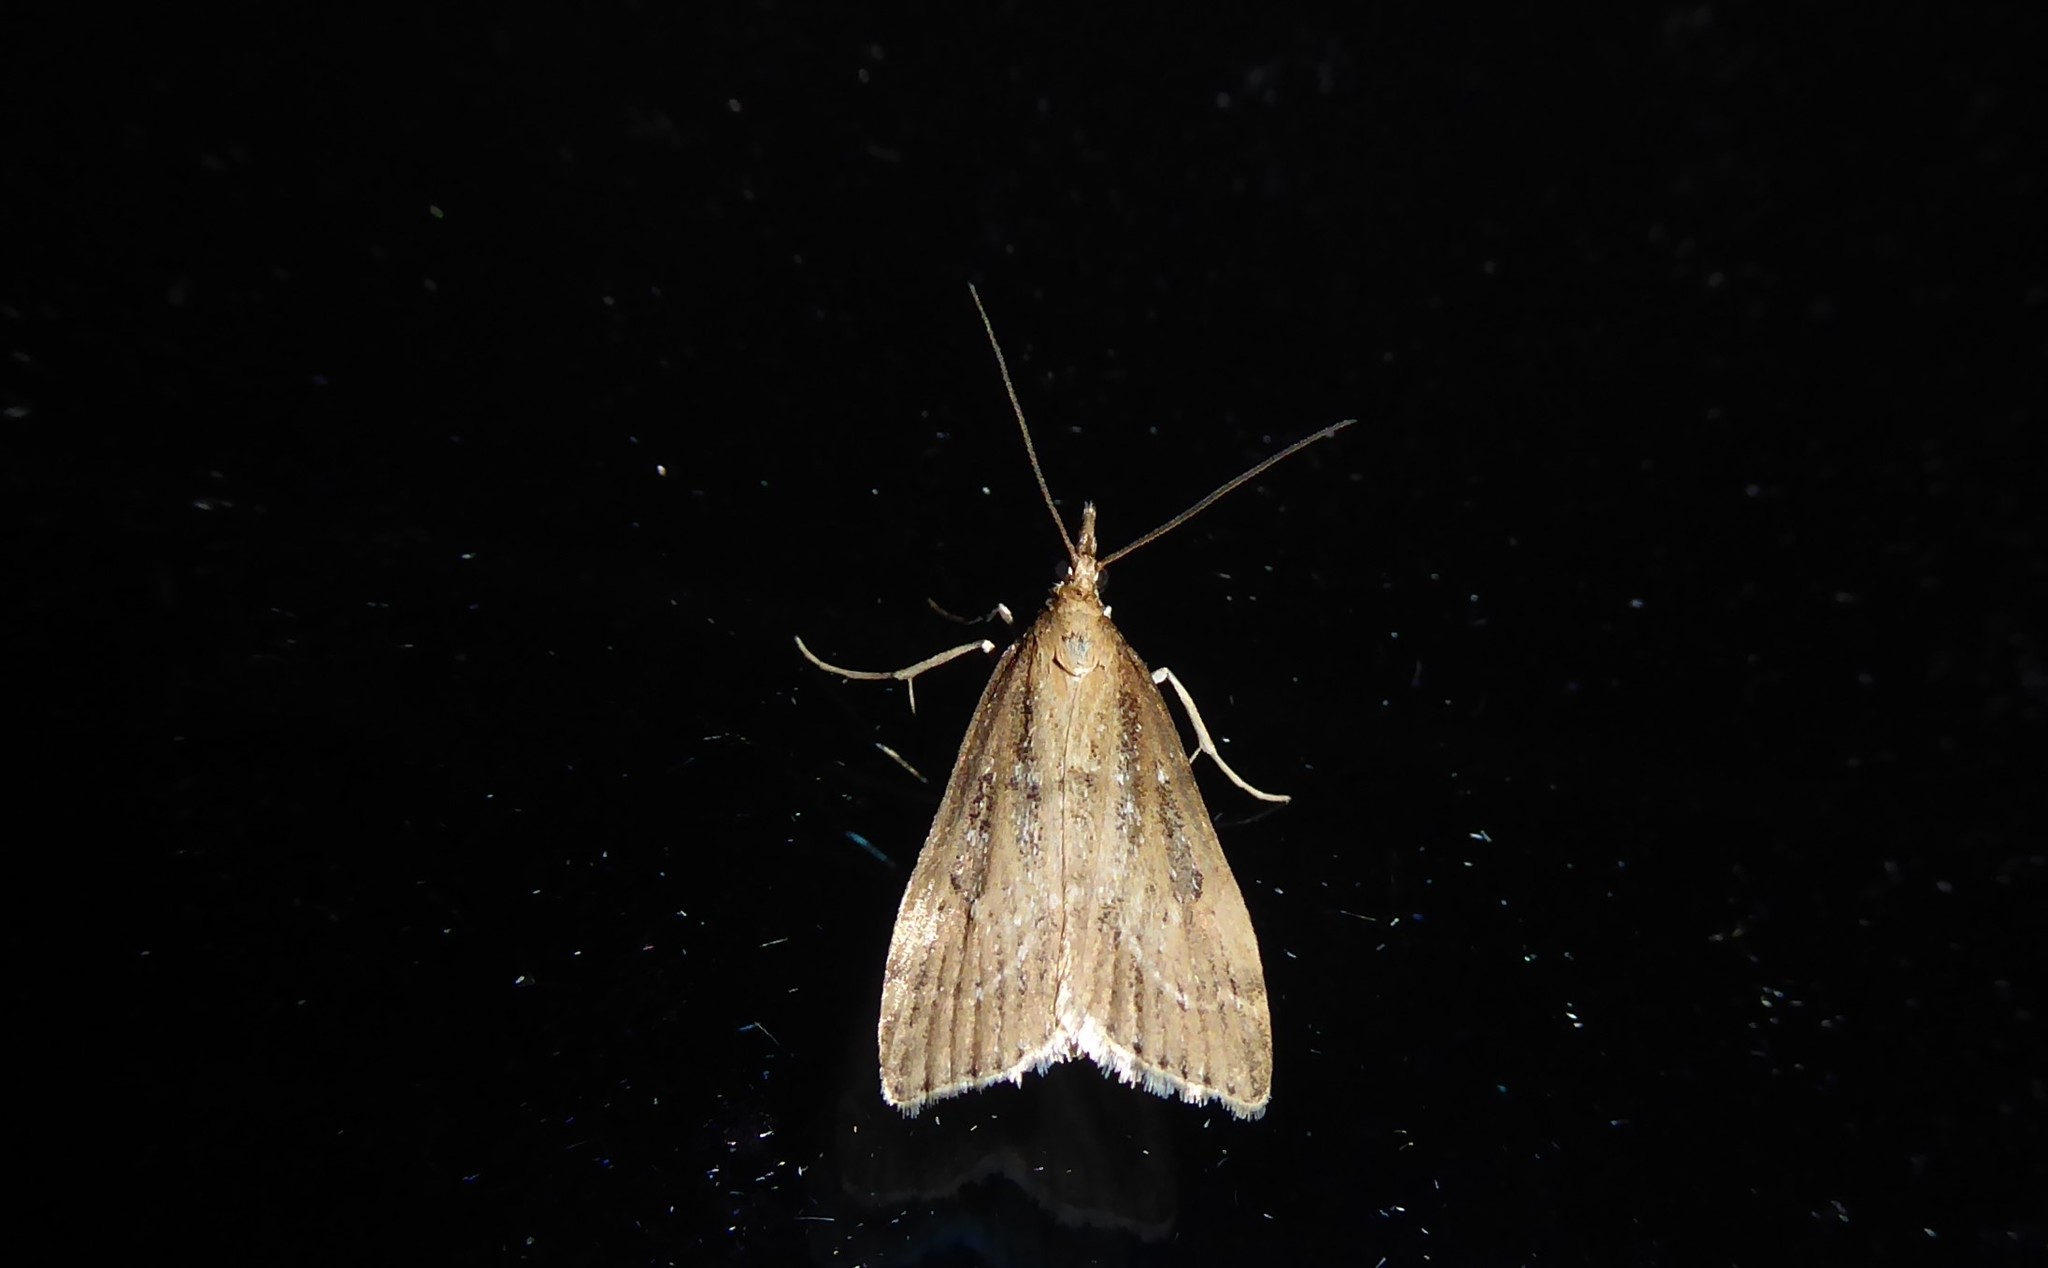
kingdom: Animalia
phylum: Arthropoda
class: Insecta
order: Lepidoptera
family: Crambidae
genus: Eudonia
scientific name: Eudonia octophora
